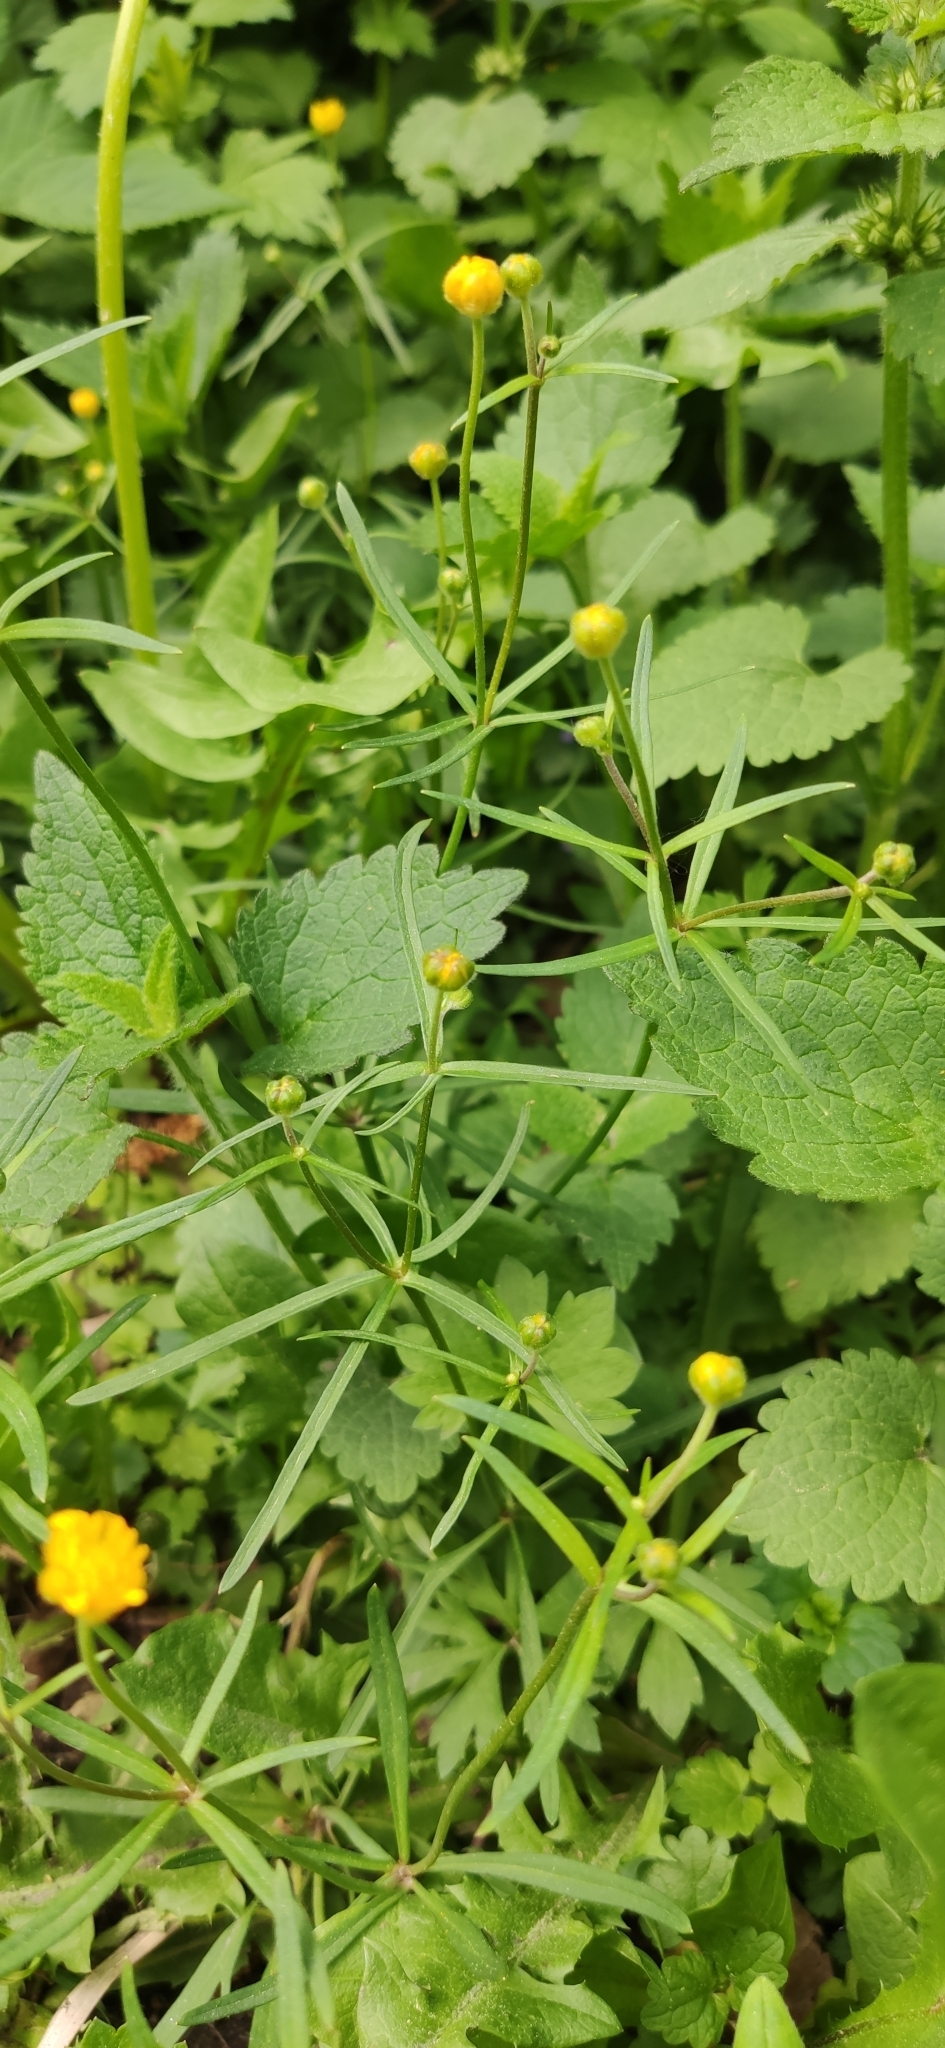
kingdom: Plantae
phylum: Tracheophyta
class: Magnoliopsida
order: Ranunculales
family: Ranunculaceae
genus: Ranunculus
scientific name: Ranunculus auricomus
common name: Goldilocks buttercup
